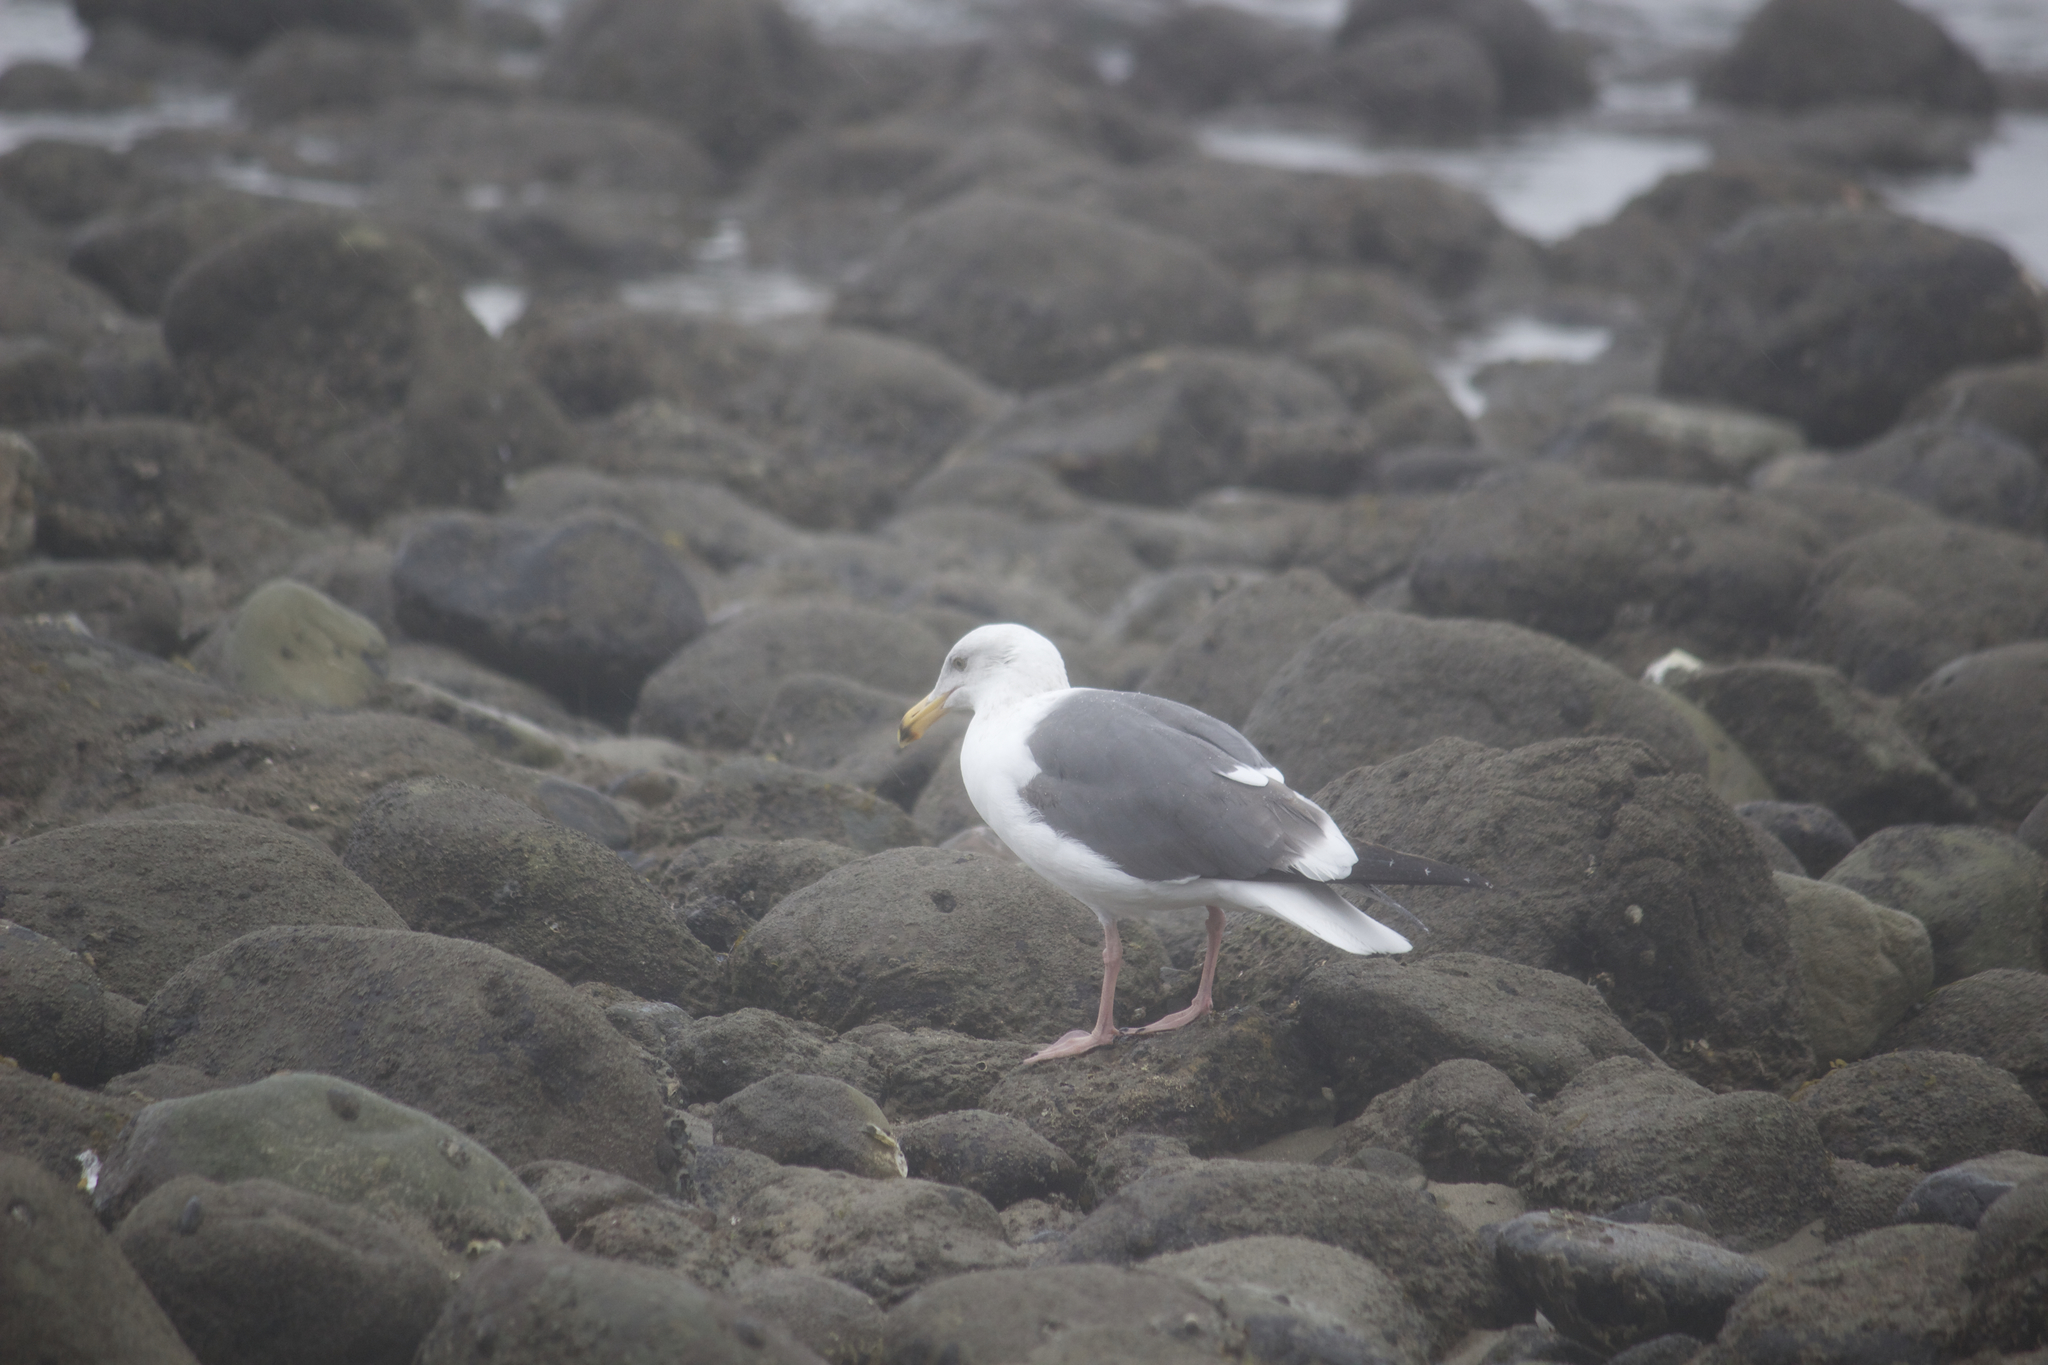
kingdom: Animalia
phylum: Chordata
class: Aves
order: Charadriiformes
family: Laridae
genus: Larus
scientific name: Larus occidentalis
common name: Western gull
